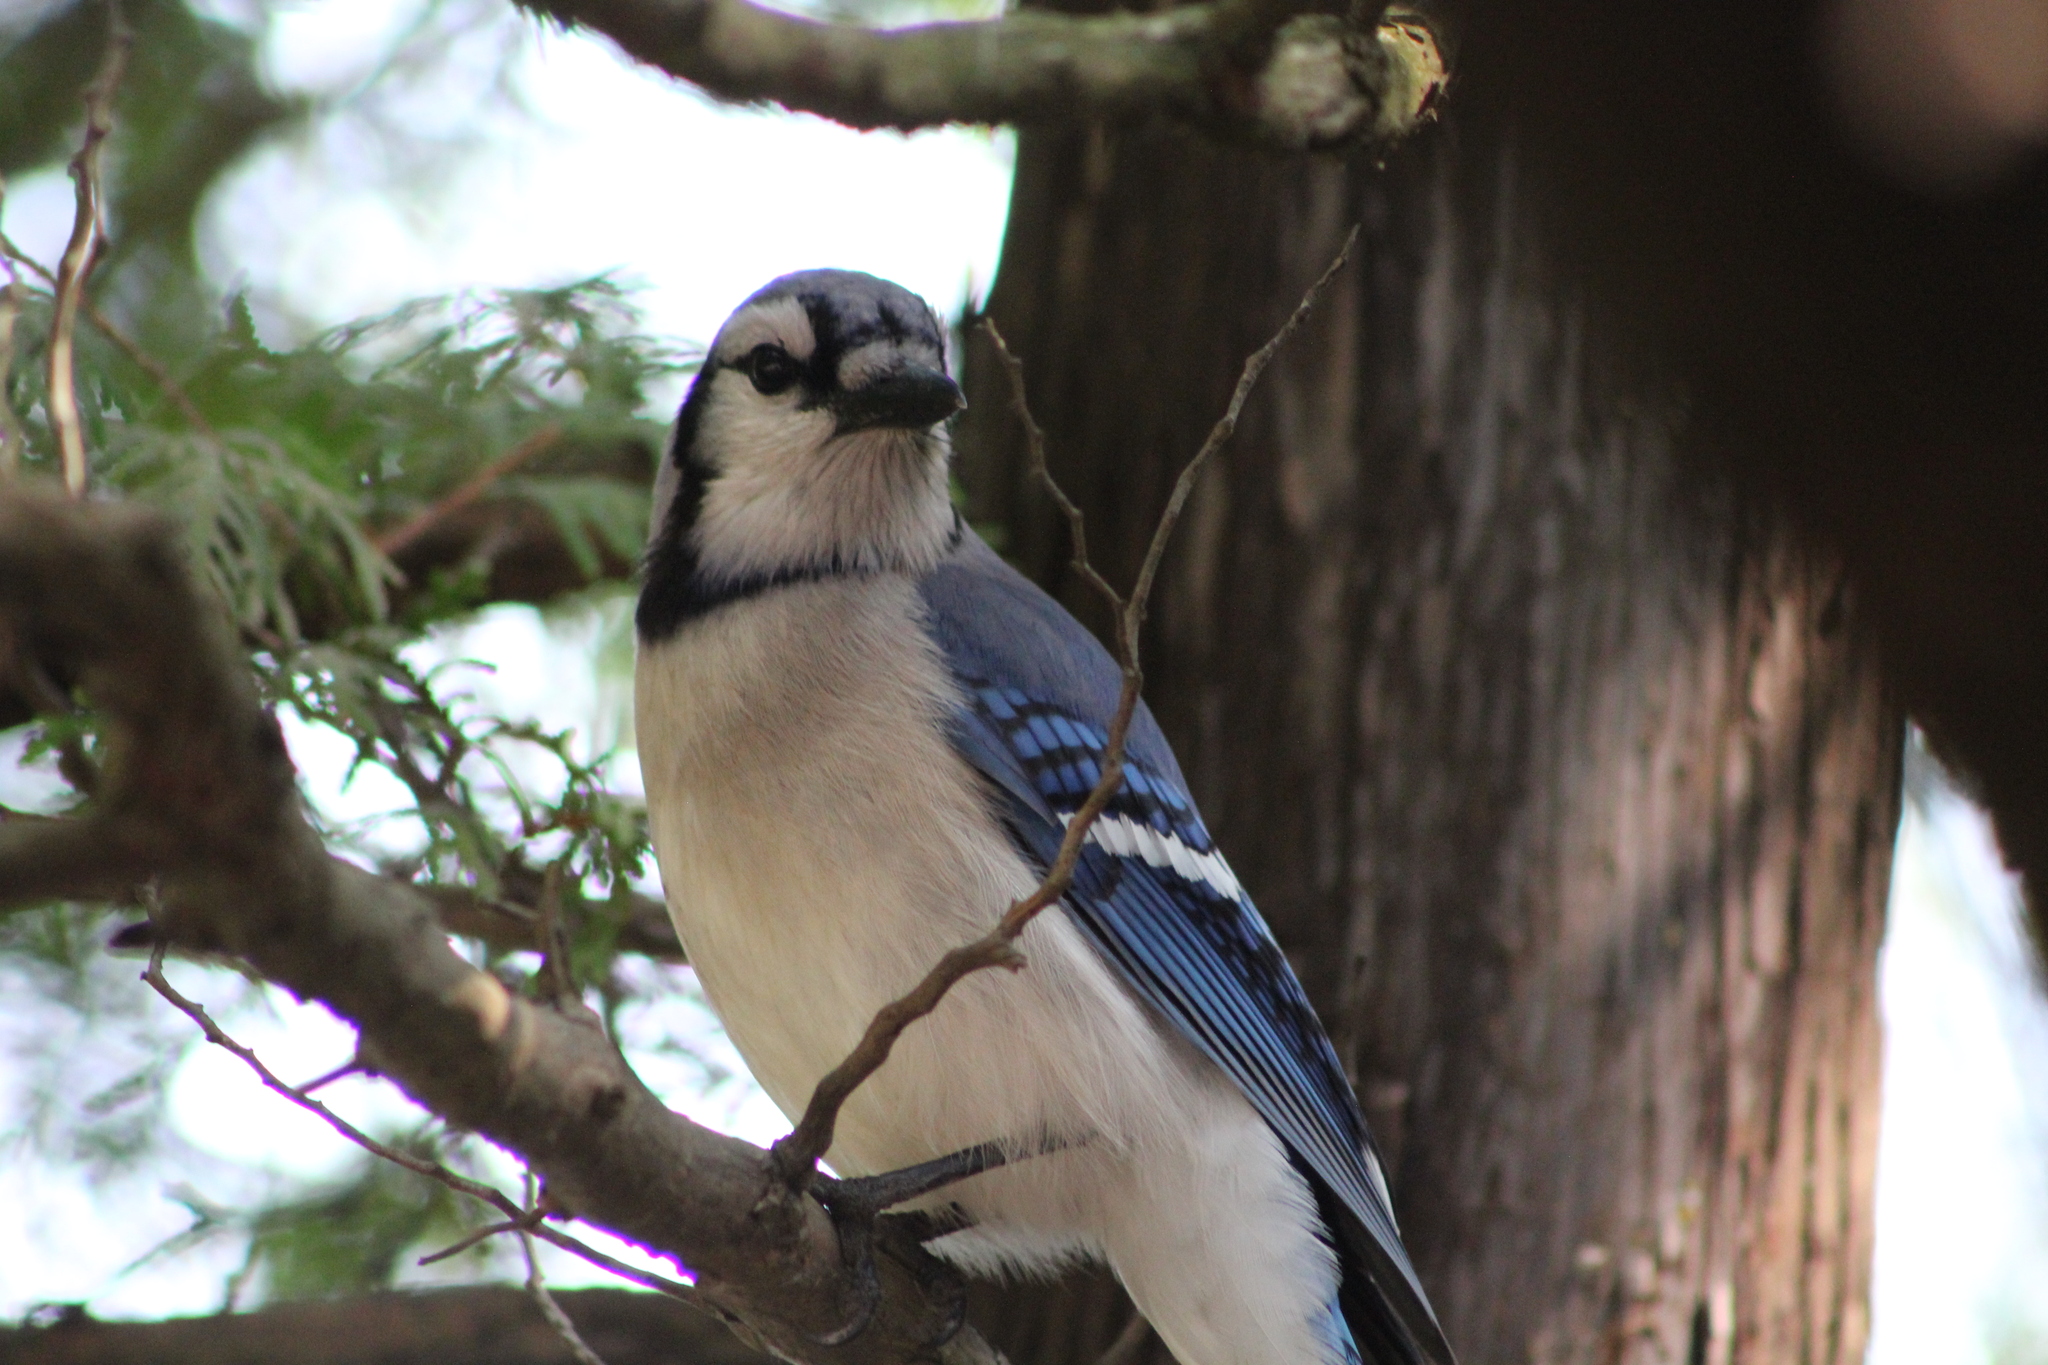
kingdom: Animalia
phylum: Chordata
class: Aves
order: Passeriformes
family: Corvidae
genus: Cyanocitta
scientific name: Cyanocitta cristata
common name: Blue jay
